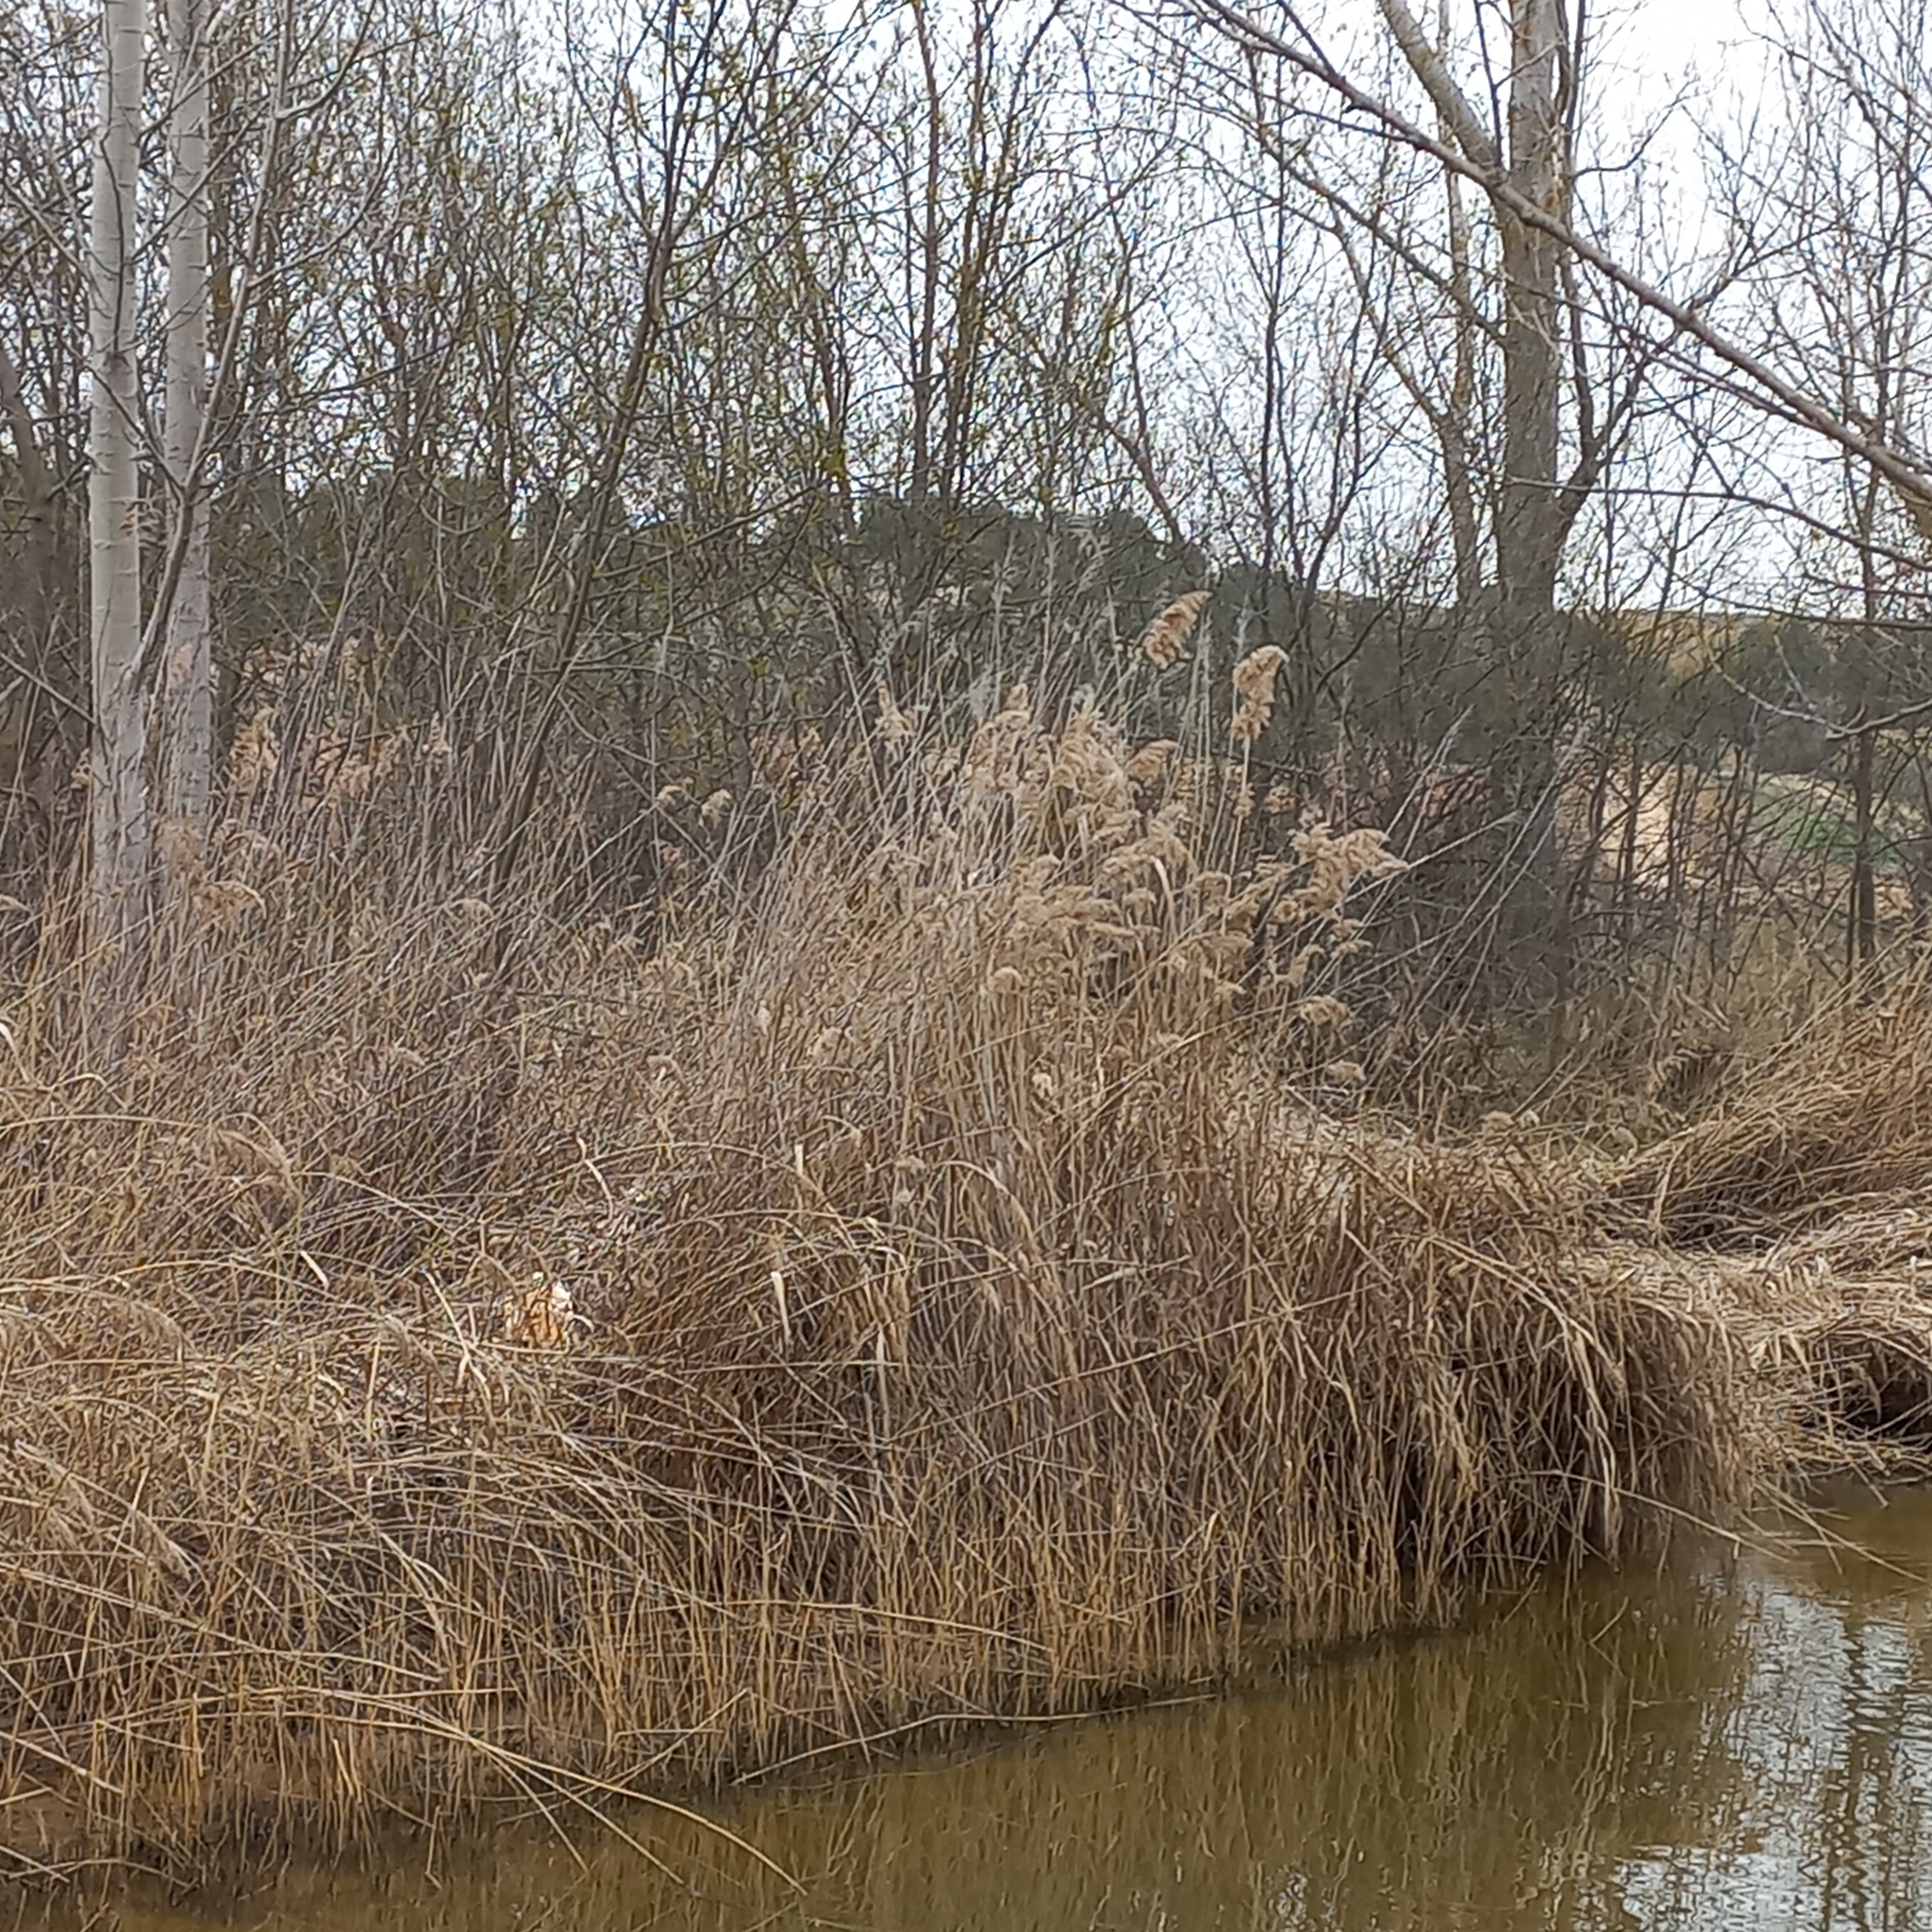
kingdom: Plantae
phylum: Tracheophyta
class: Liliopsida
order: Poales
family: Poaceae
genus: Phragmites
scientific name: Phragmites australis
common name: Common reed
